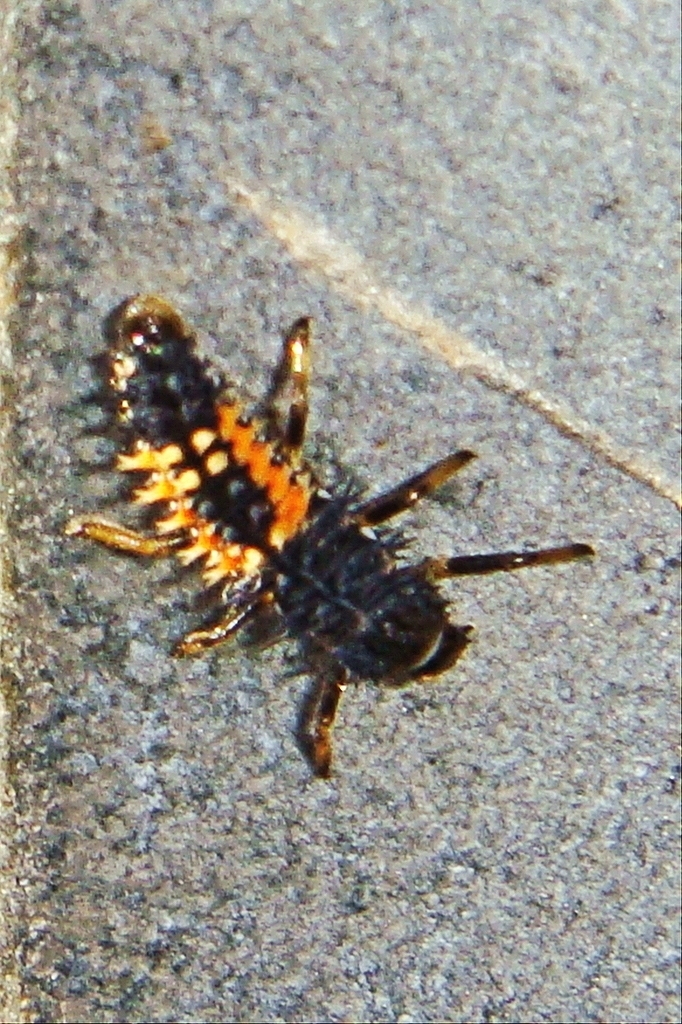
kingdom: Animalia
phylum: Arthropoda
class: Insecta
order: Coleoptera
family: Coccinellidae
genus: Harmonia
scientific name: Harmonia axyridis
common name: Harlequin ladybird
